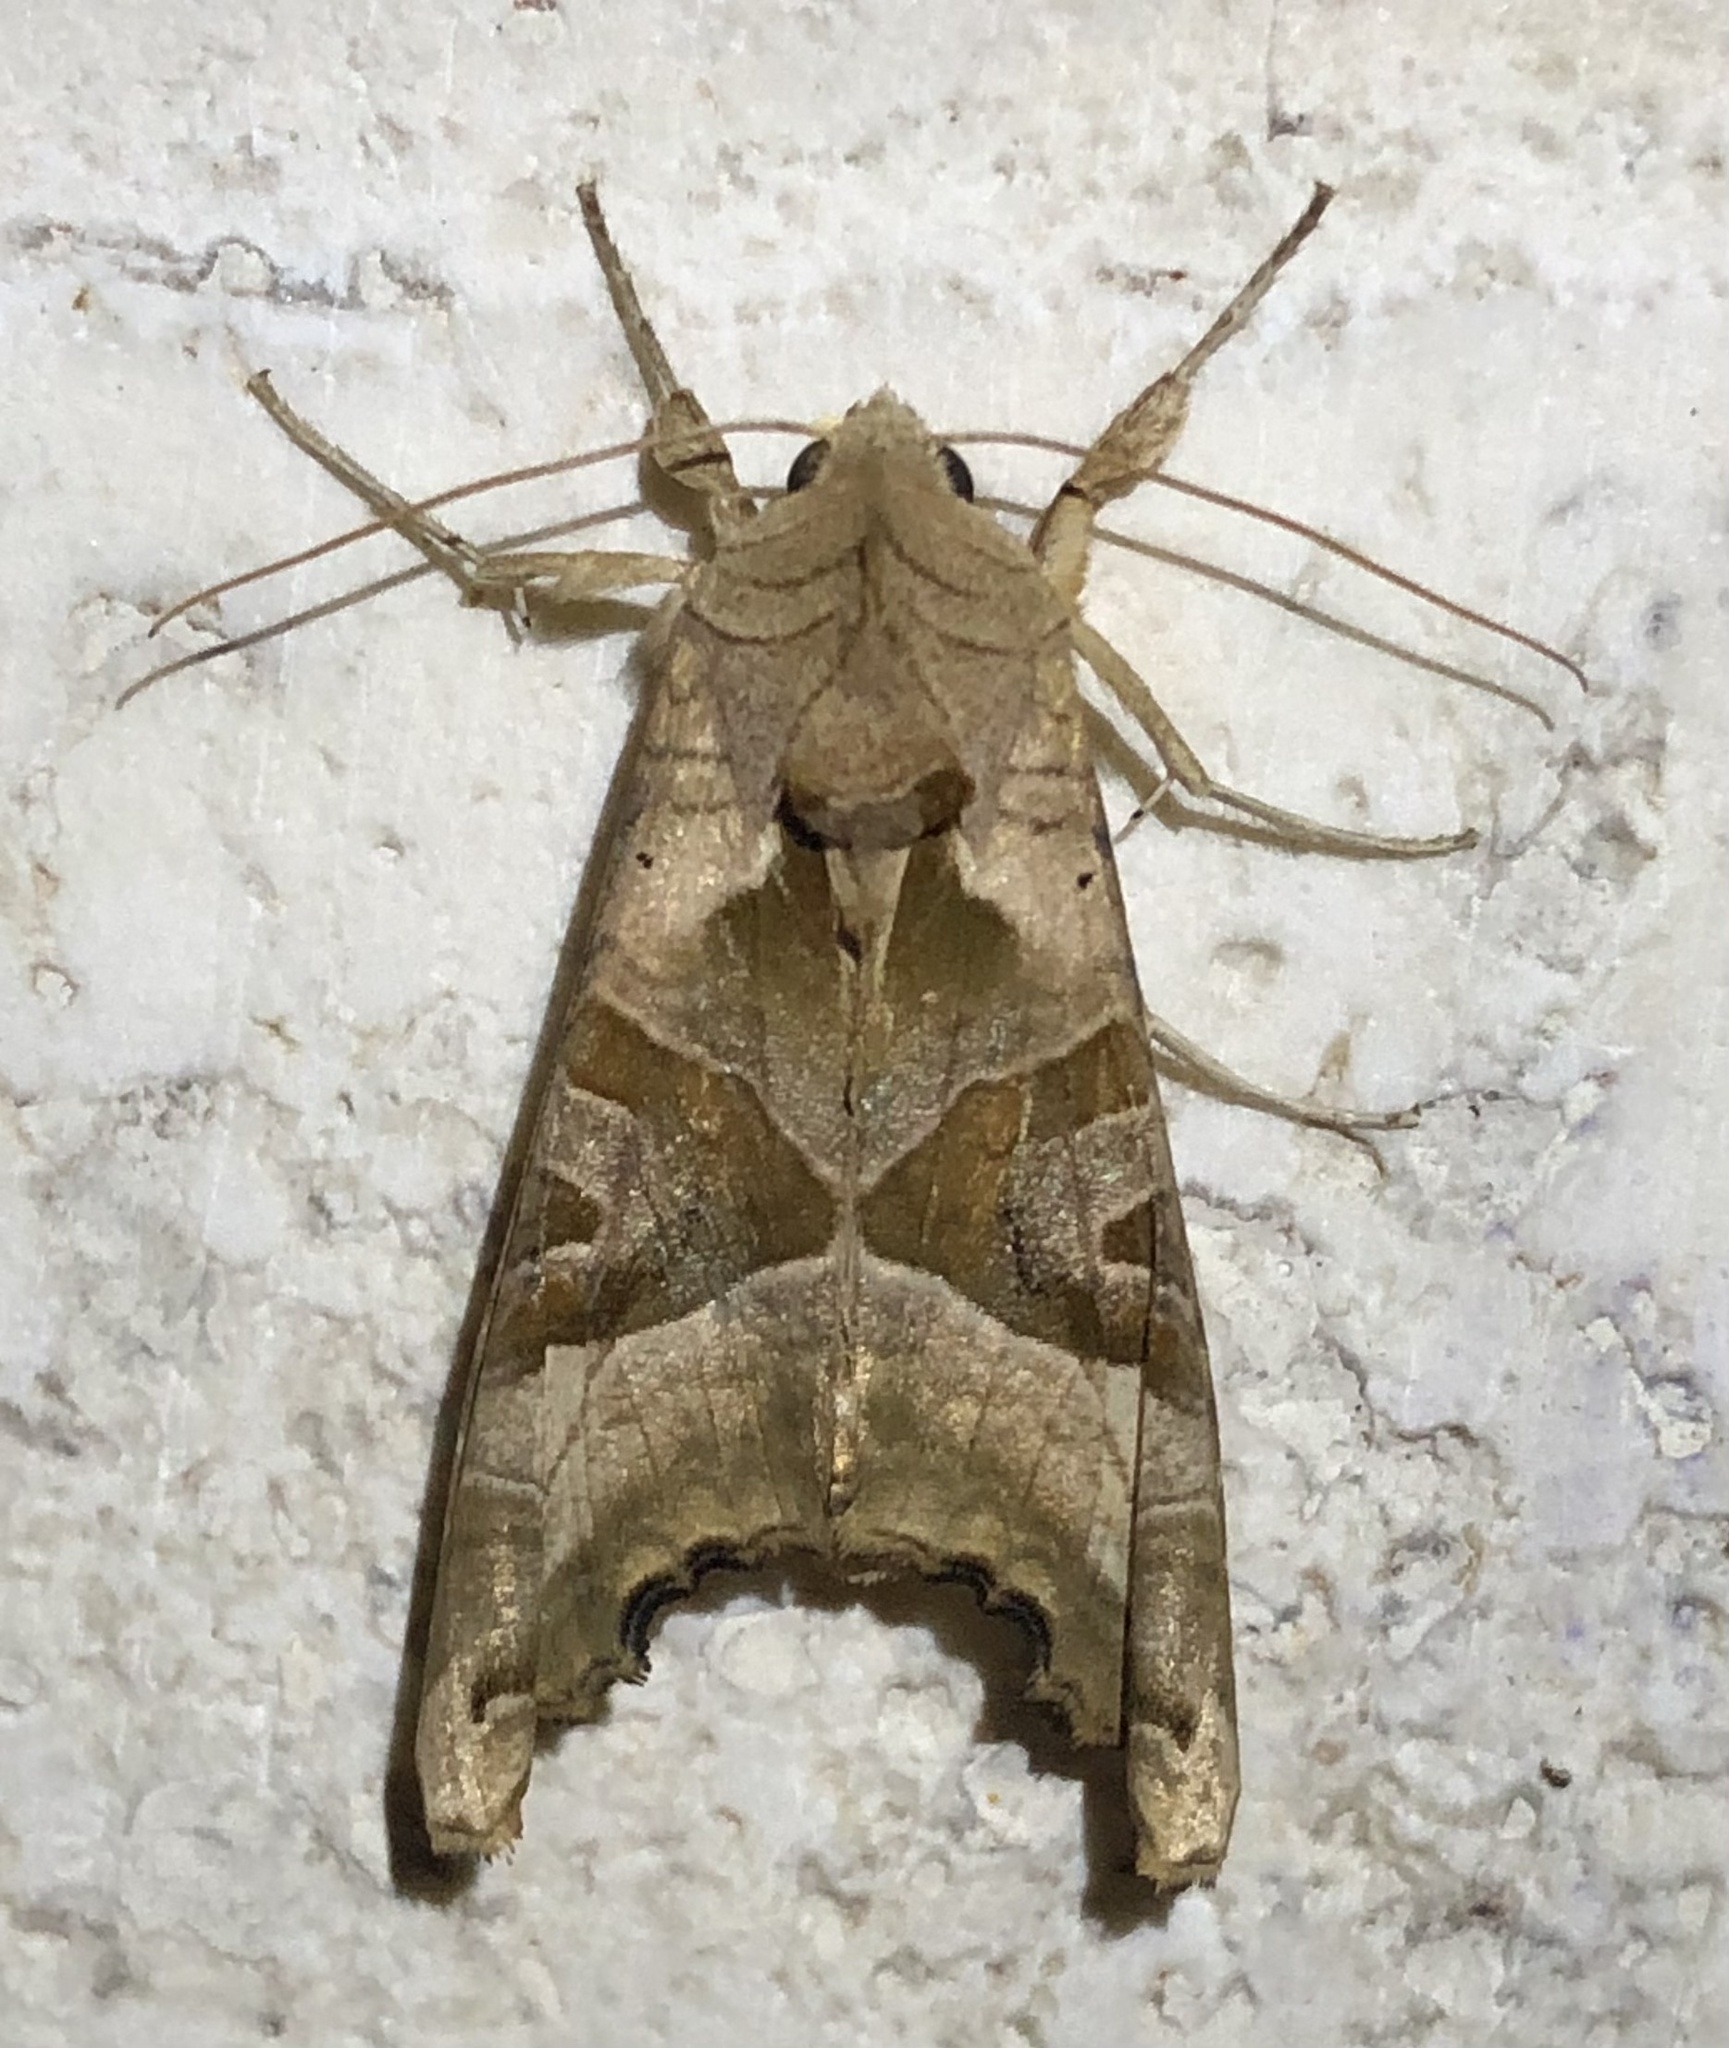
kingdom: Animalia
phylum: Arthropoda
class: Insecta
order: Lepidoptera
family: Noctuidae
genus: Phlogophora
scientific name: Phlogophora meticulosa
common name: Angle shades
